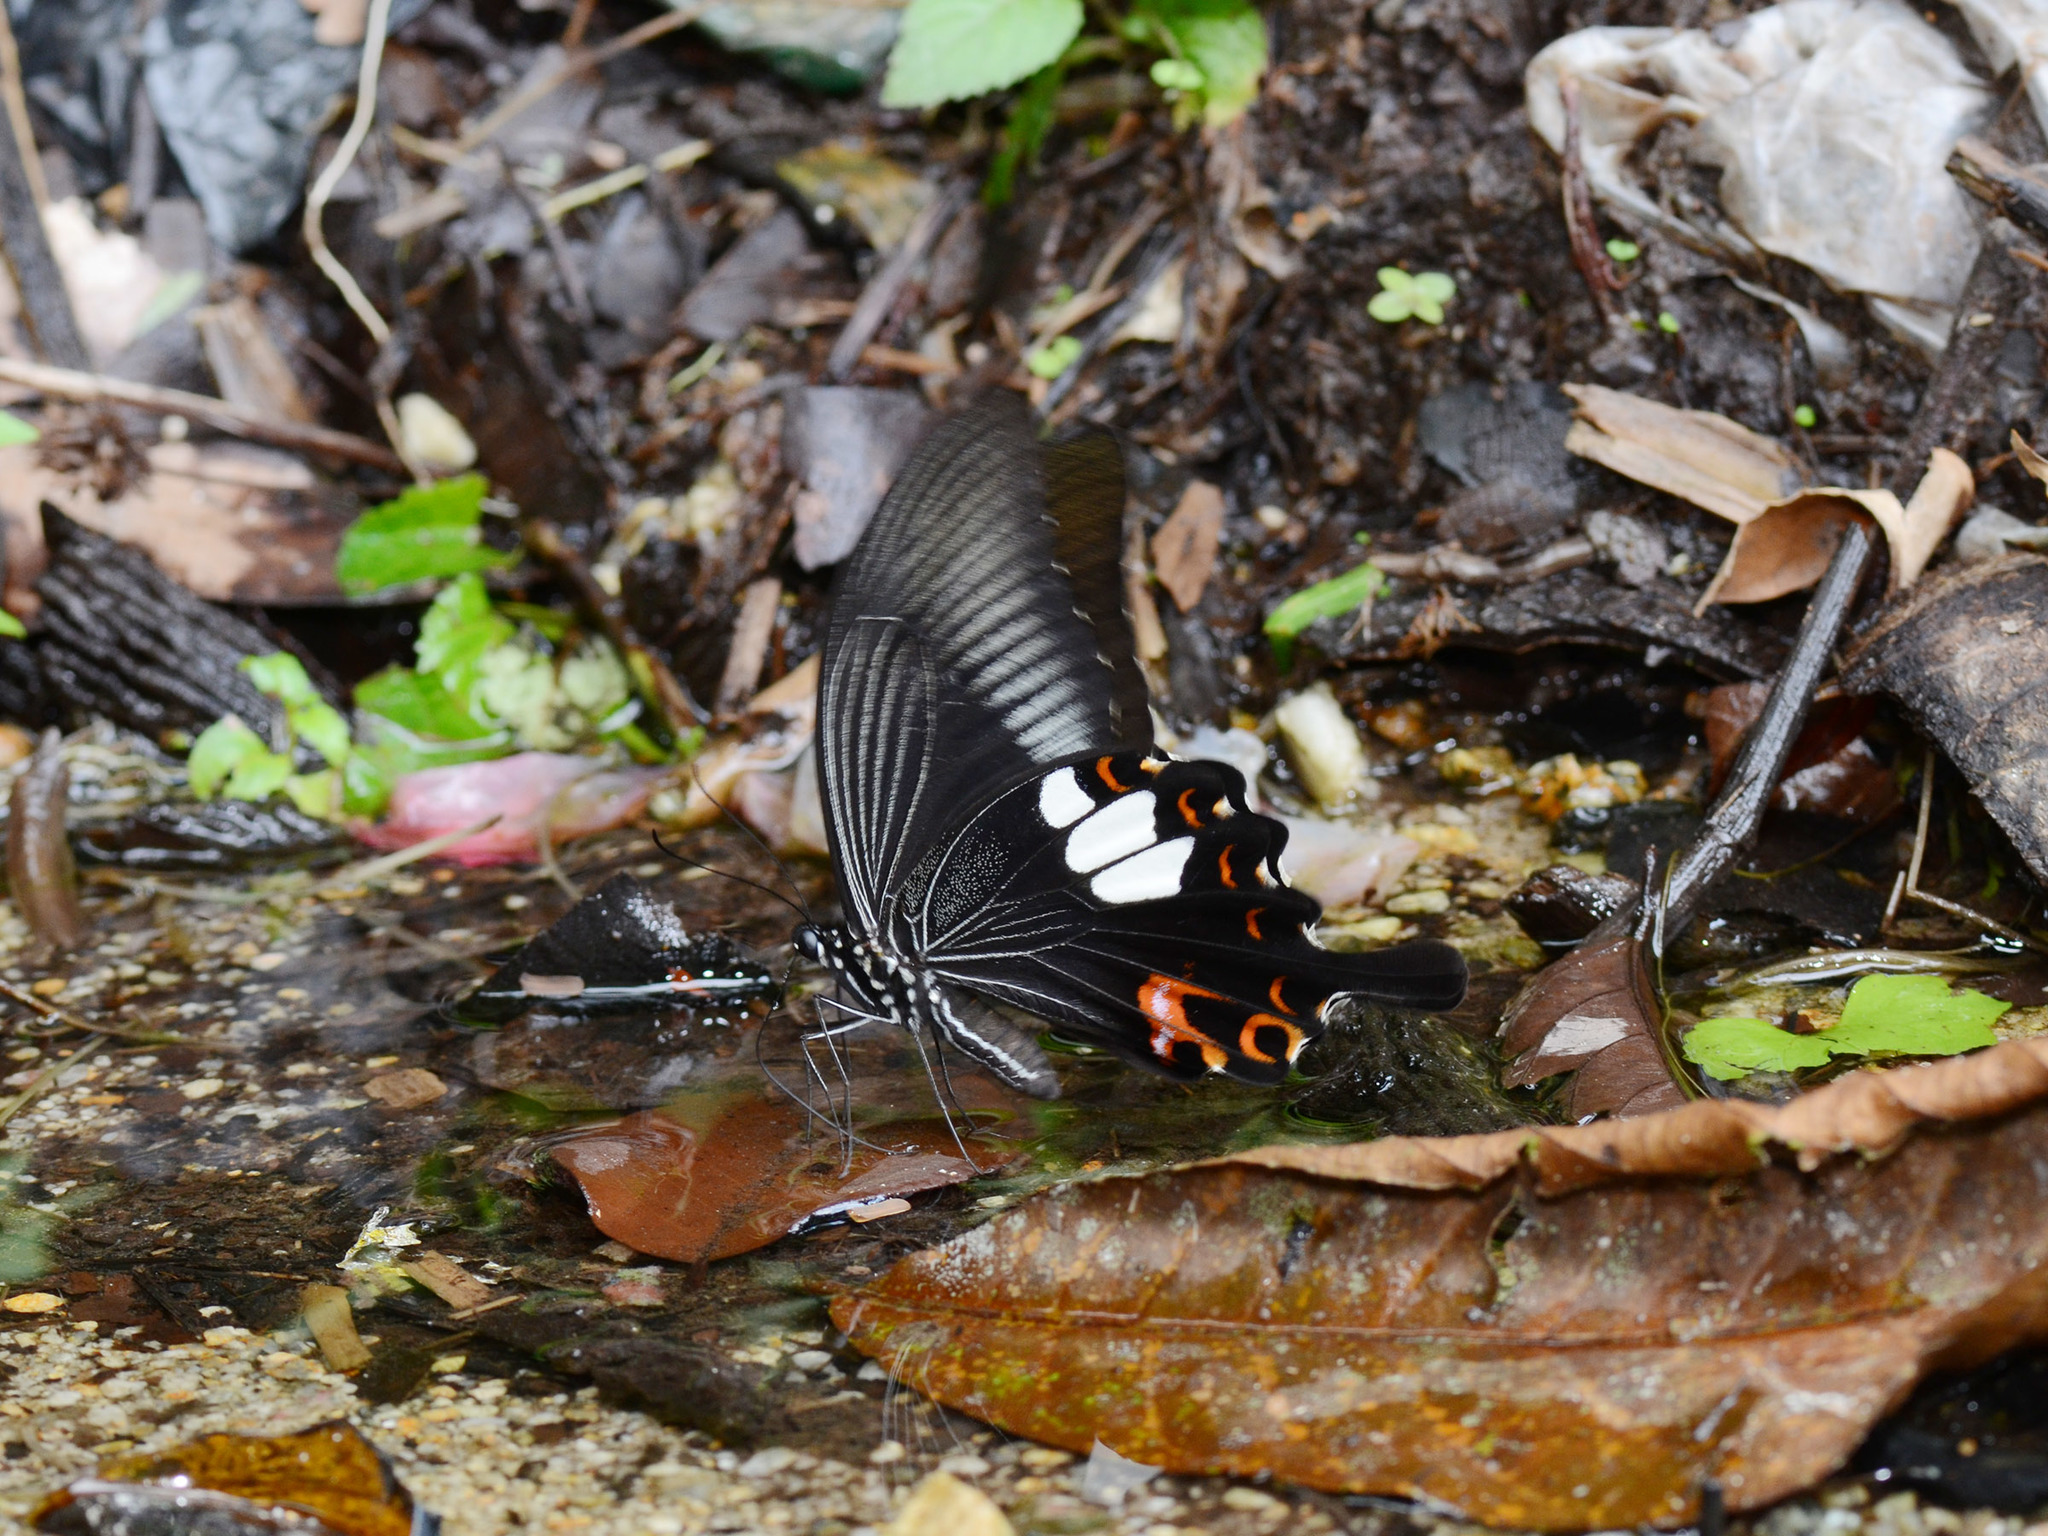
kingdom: Animalia
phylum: Arthropoda
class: Insecta
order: Lepidoptera
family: Papilionidae
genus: Papilio
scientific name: Papilio helenus
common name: Red helen
